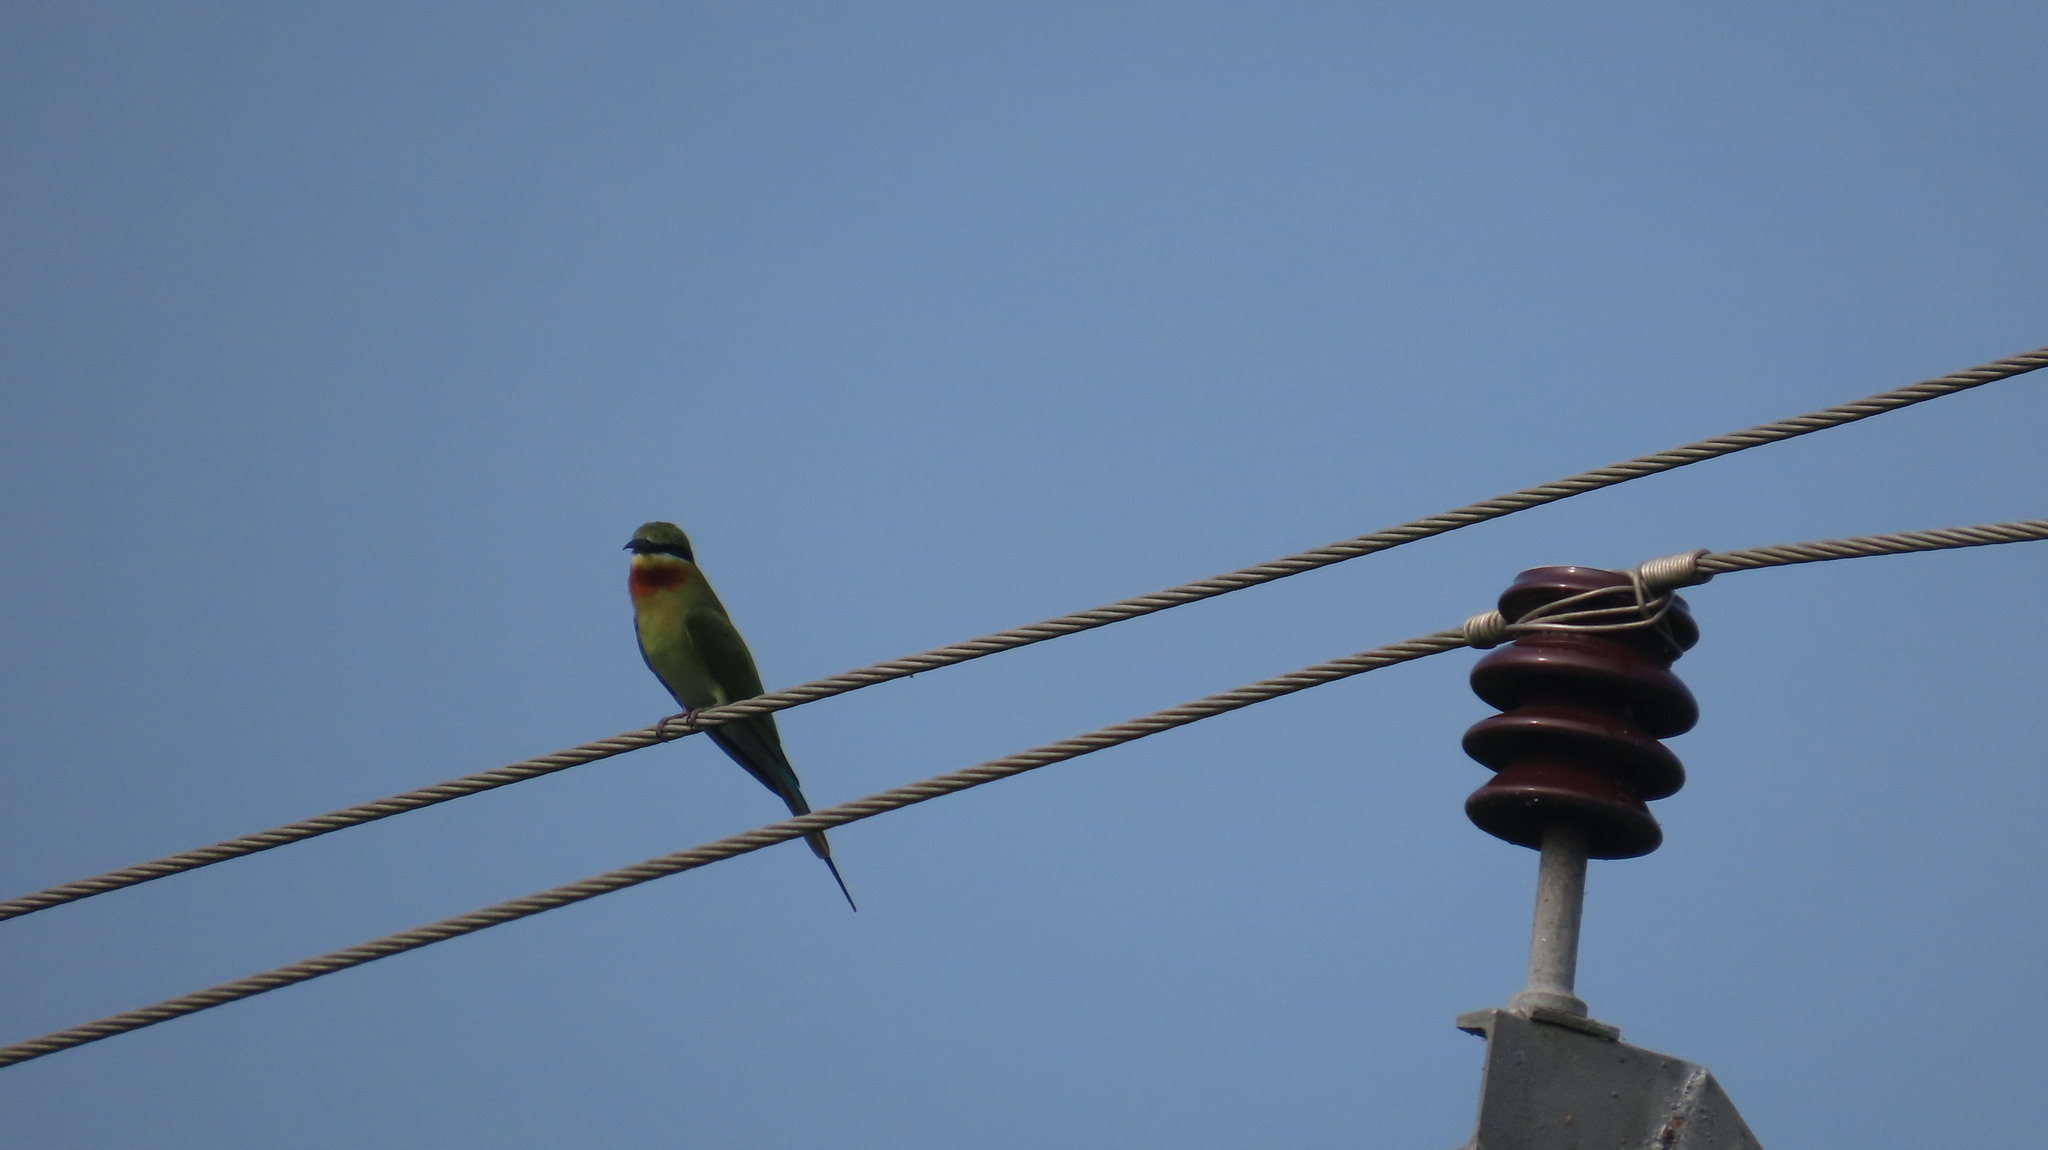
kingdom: Animalia
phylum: Chordata
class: Aves
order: Coraciiformes
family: Meropidae
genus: Merops
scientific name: Merops philippinus
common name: Blue-tailed bee-eater
